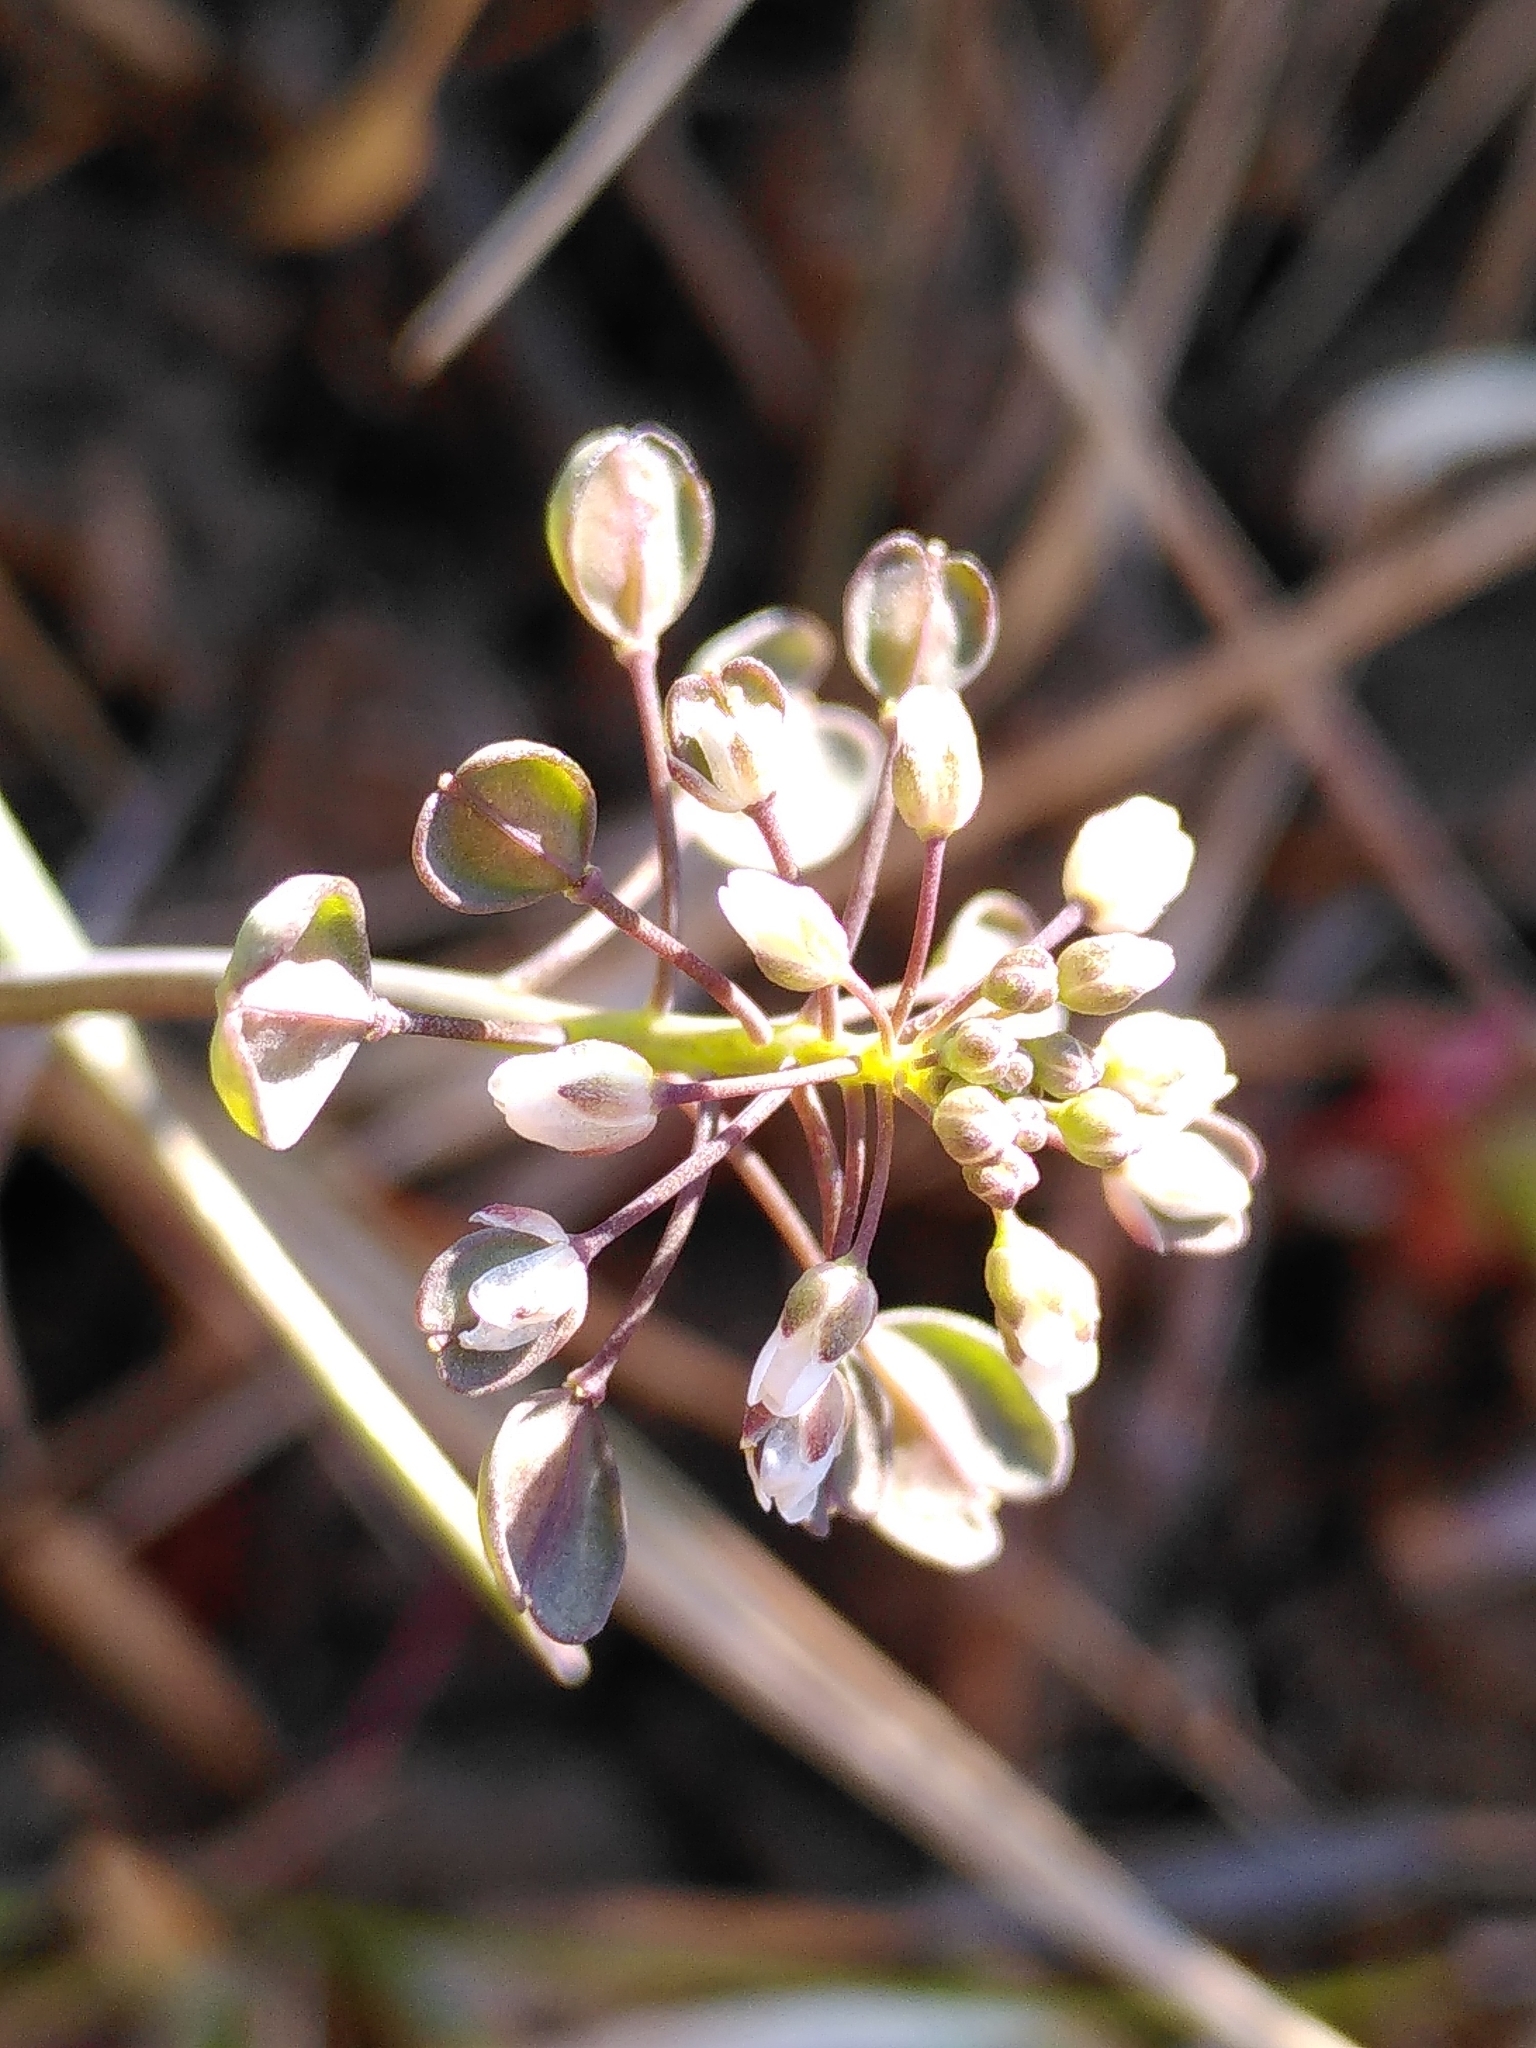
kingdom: Plantae
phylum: Tracheophyta
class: Magnoliopsida
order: Brassicales
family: Brassicaceae
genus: Noccaea
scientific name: Noccaea perfoliata
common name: Perfoliate pennycress
